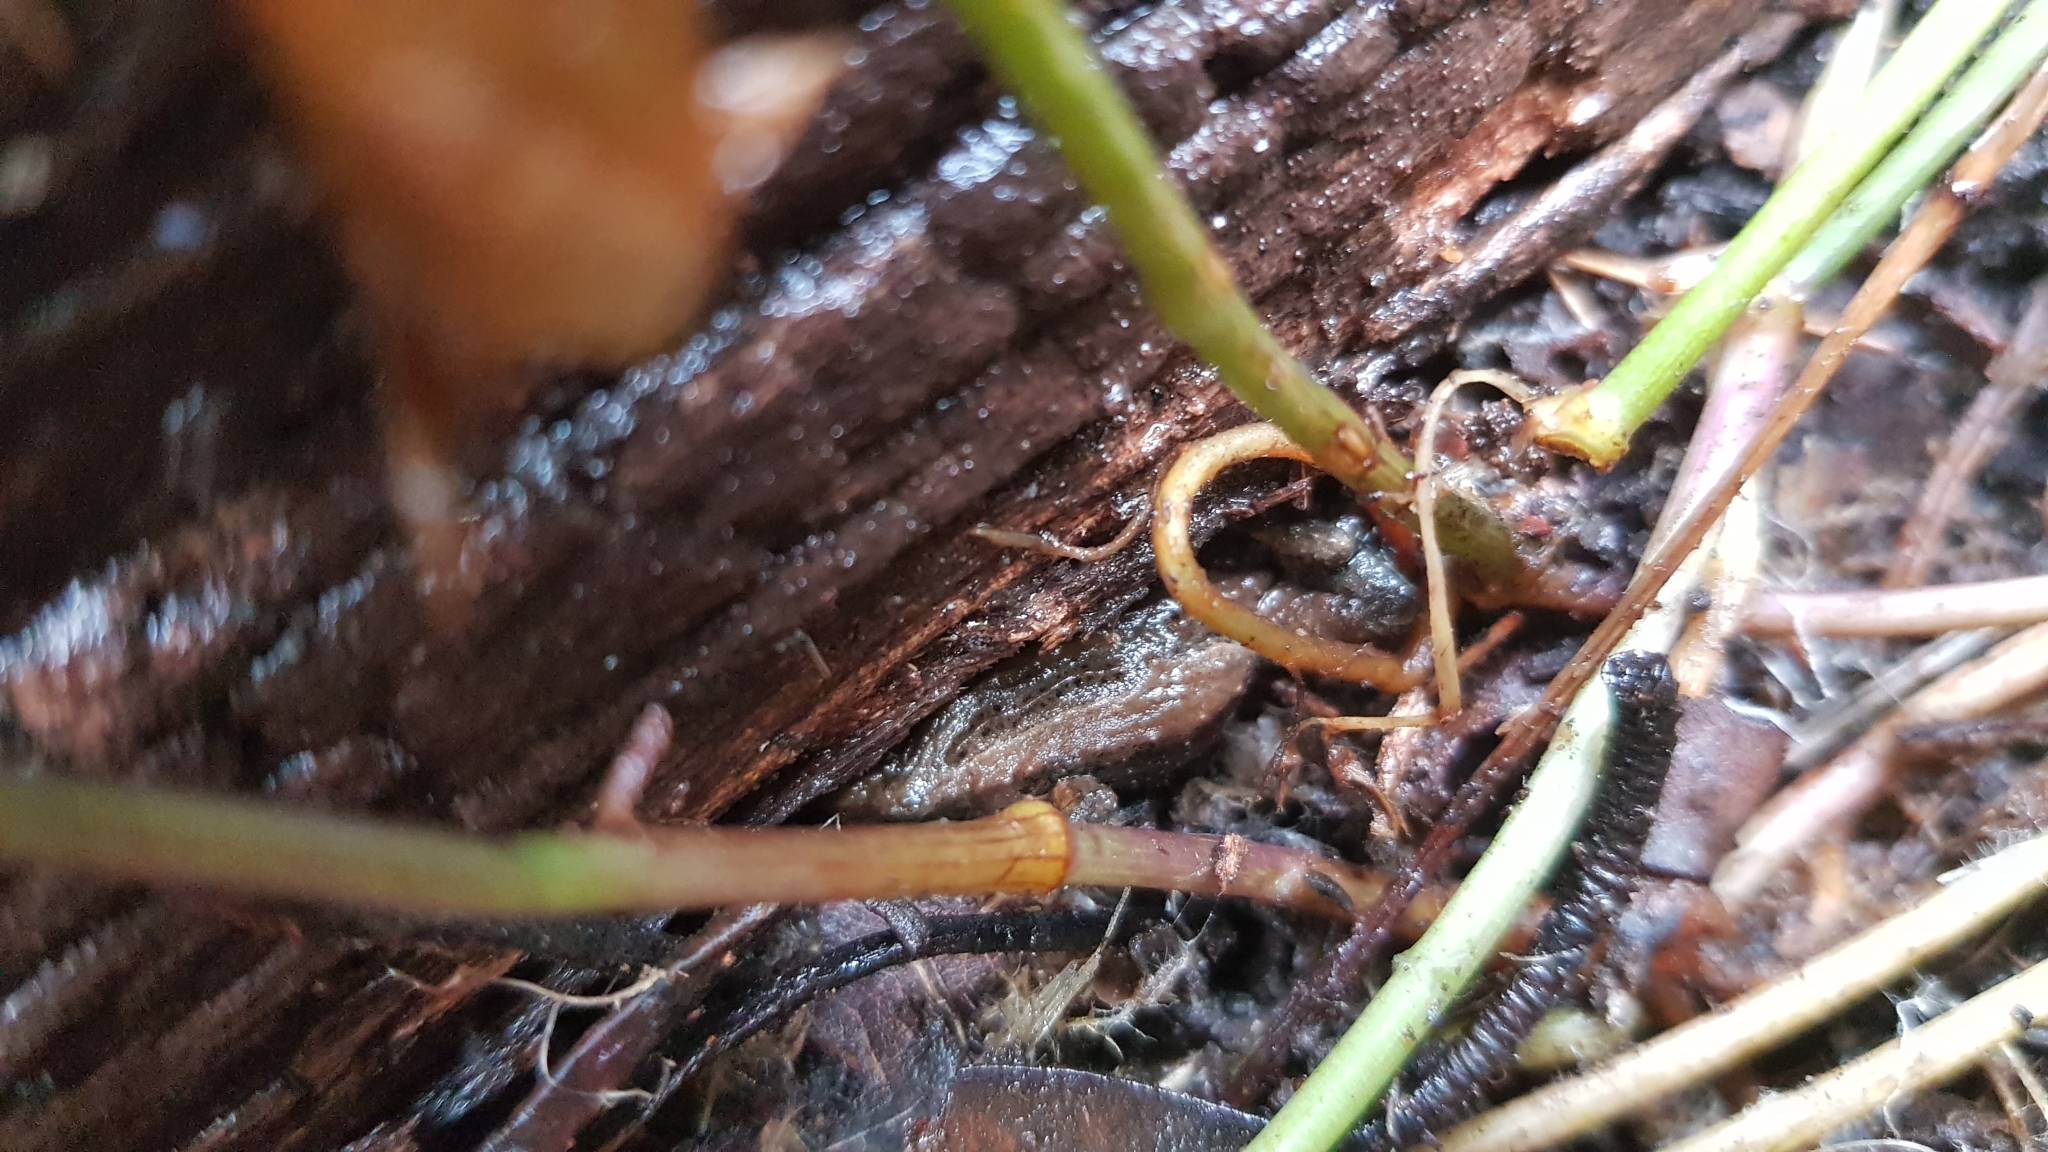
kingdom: Animalia
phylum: Chordata
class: Amphibia
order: Anura
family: Myobatrachidae
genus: Crinia
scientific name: Crinia signifera
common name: Brown froglet
